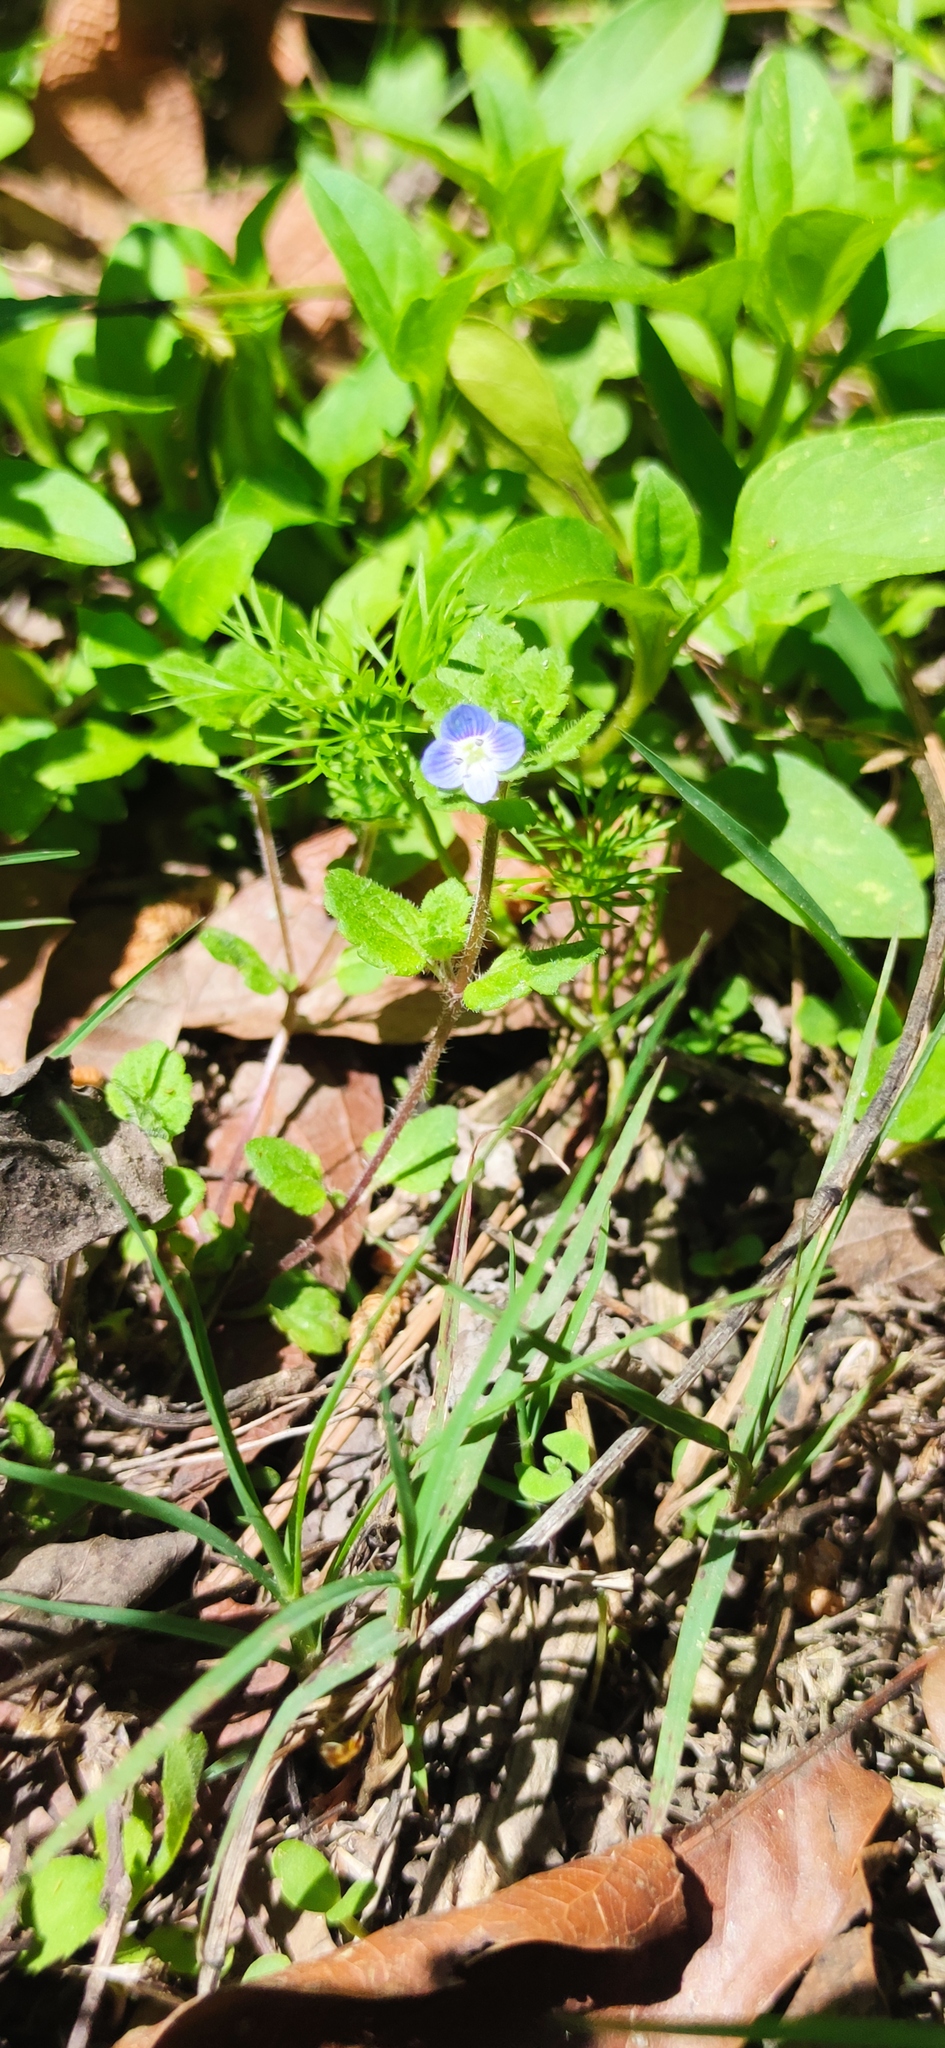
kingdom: Plantae
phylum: Tracheophyta
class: Magnoliopsida
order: Lamiales
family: Plantaginaceae
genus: Veronica
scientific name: Veronica persica
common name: Common field-speedwell
